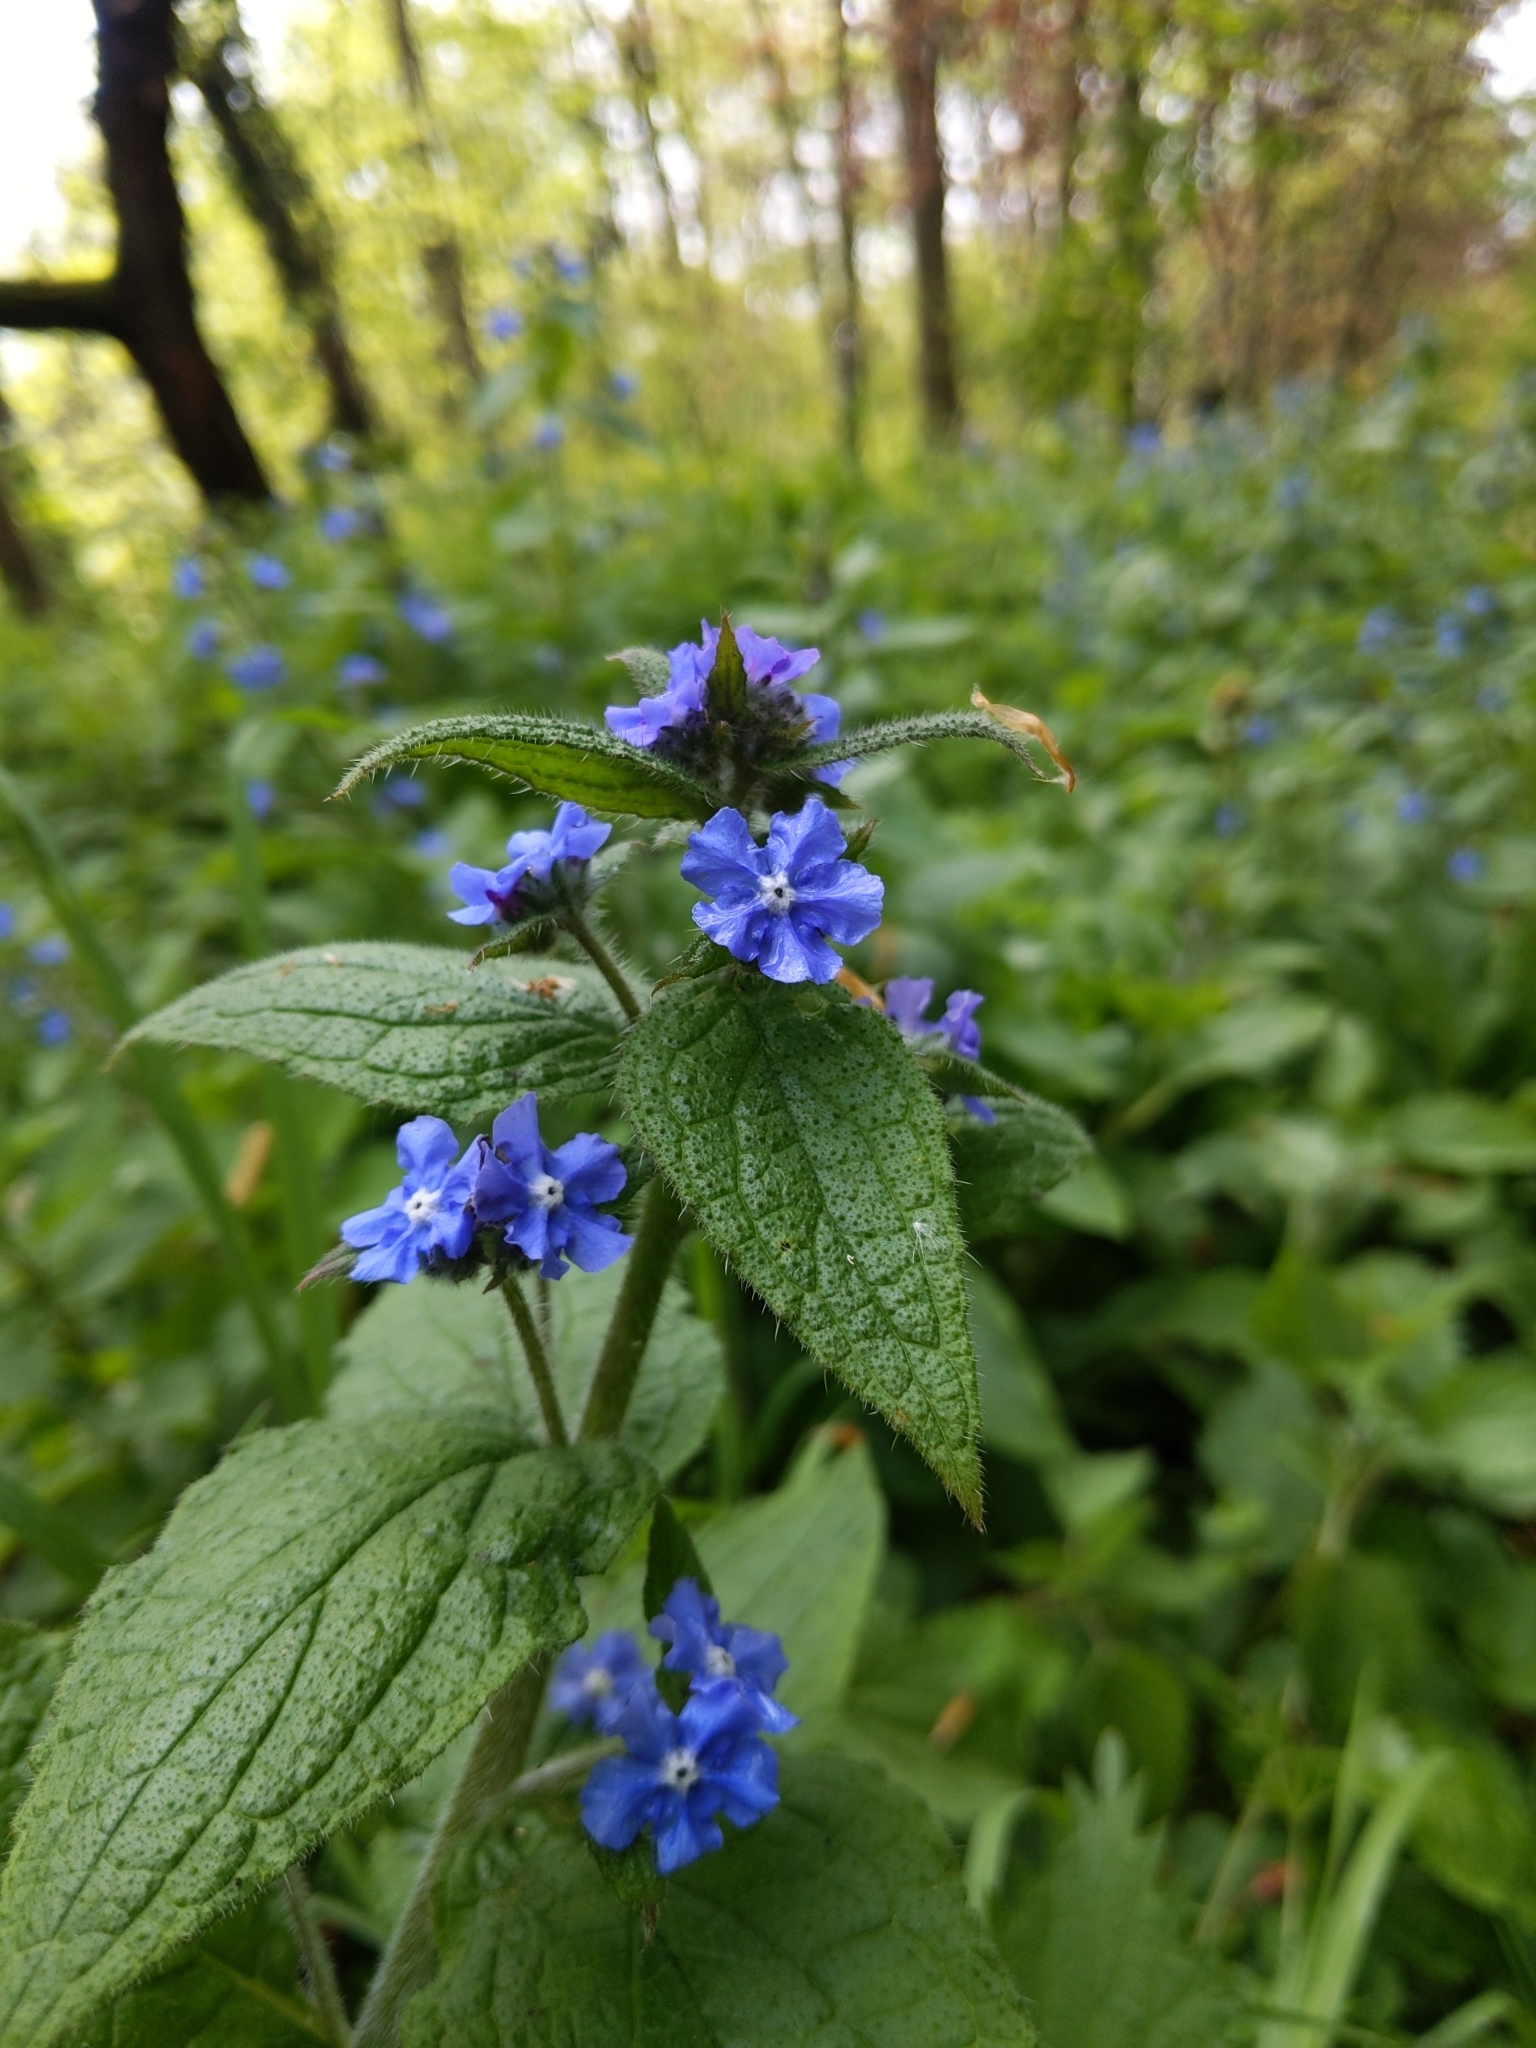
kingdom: Plantae
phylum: Tracheophyta
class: Magnoliopsida
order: Boraginales
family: Boraginaceae
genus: Pentaglottis
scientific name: Pentaglottis sempervirens
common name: Green alkanet
